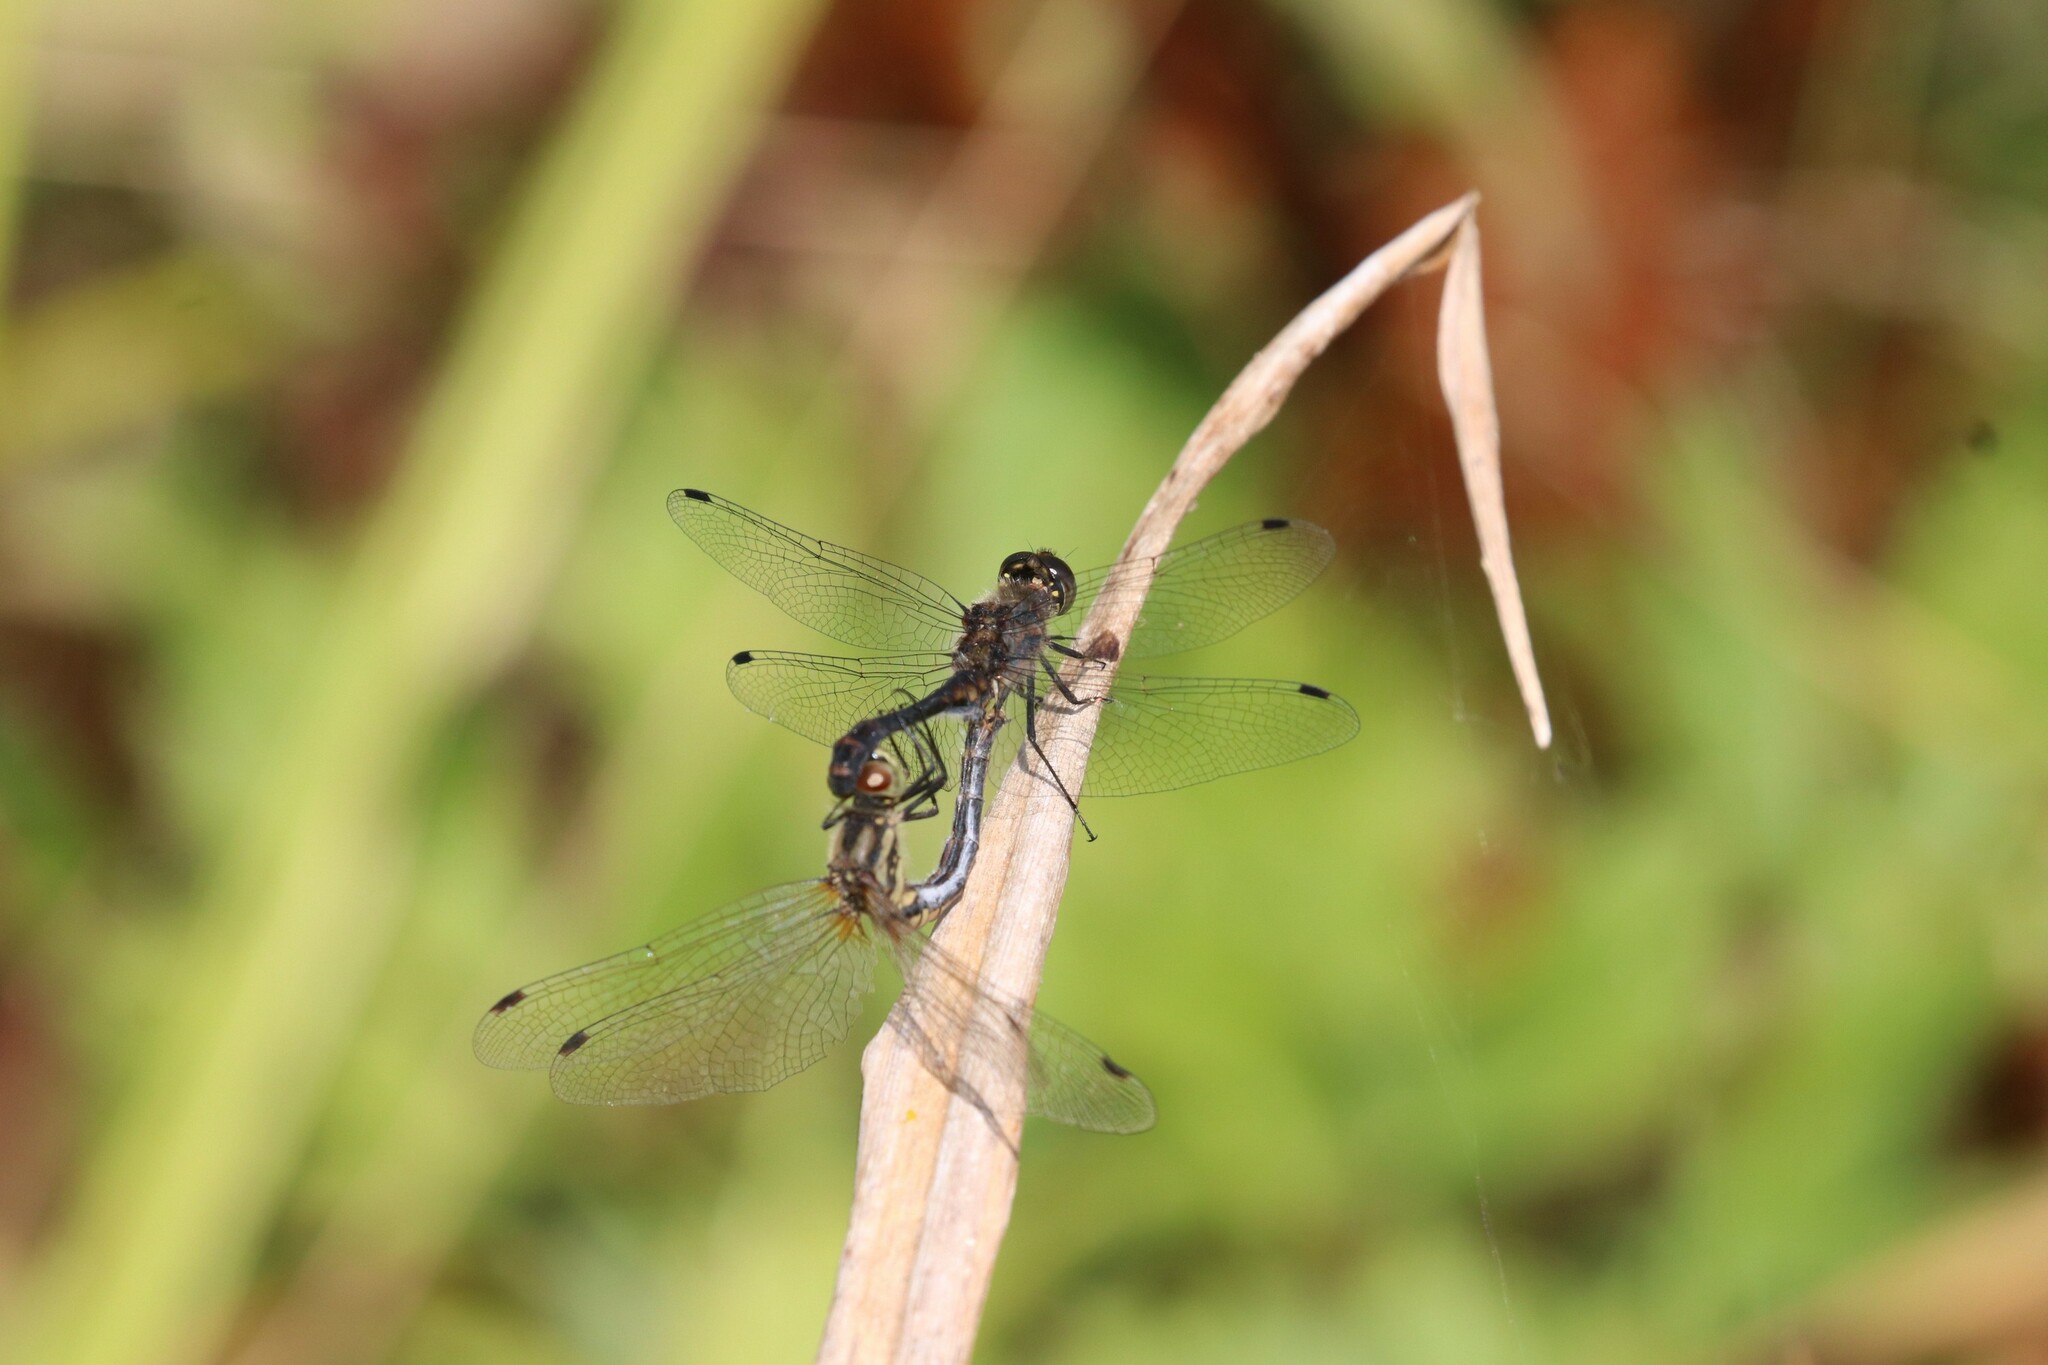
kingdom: Animalia
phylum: Arthropoda
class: Insecta
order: Odonata
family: Libellulidae
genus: Sympetrum
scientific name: Sympetrum danae
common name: Black darter
